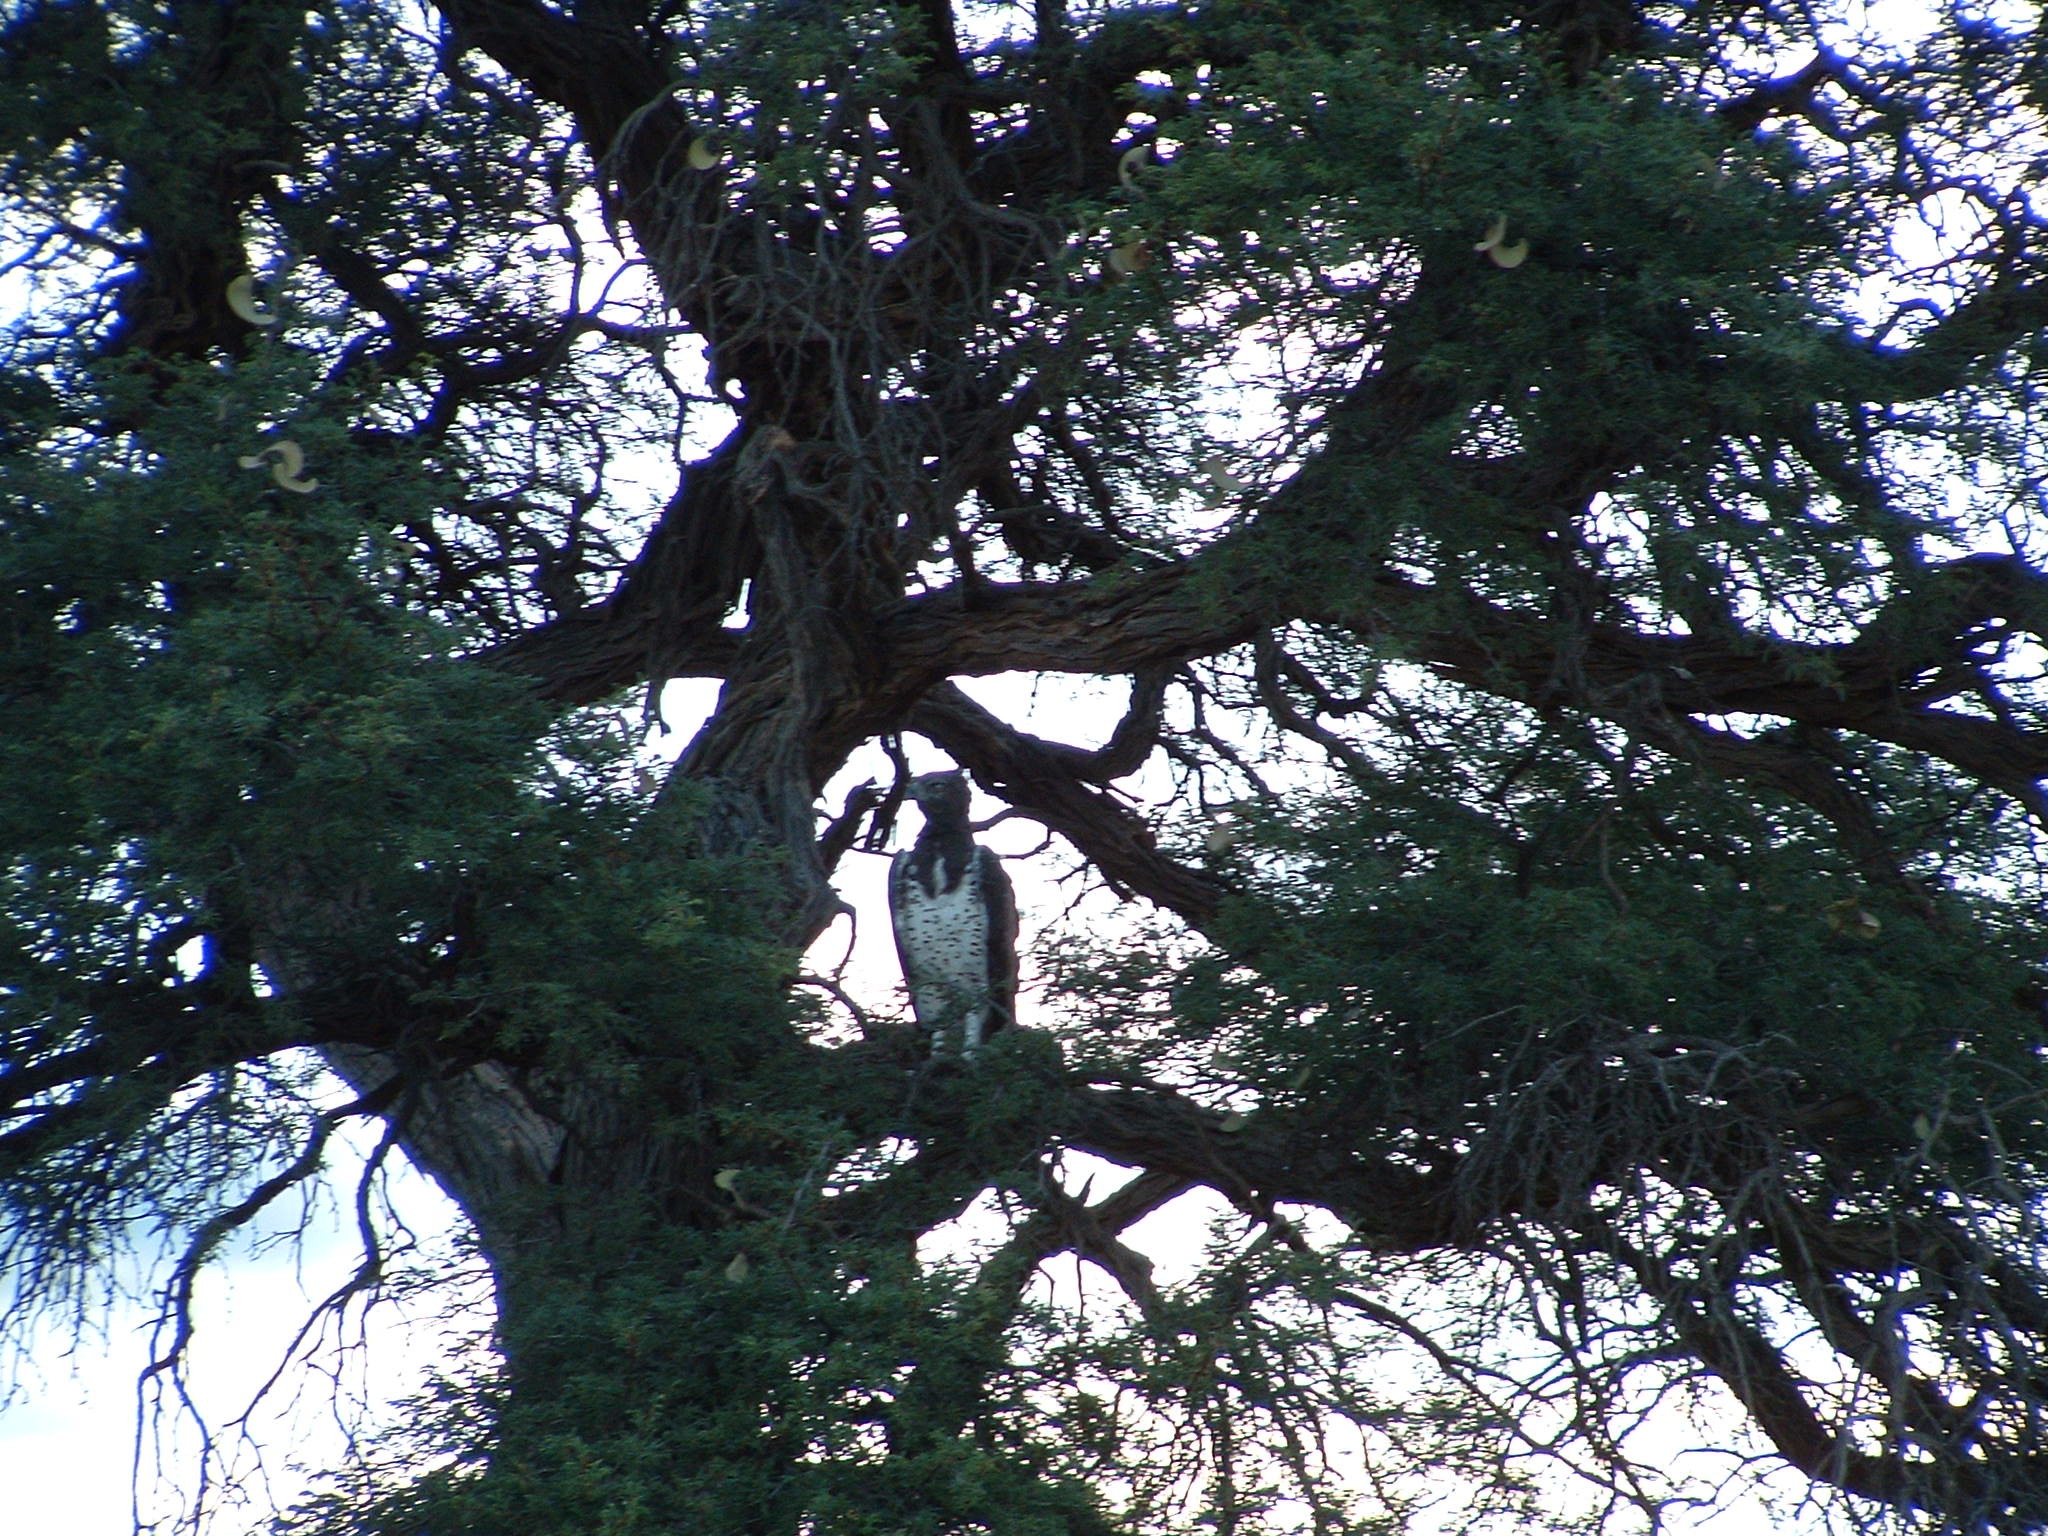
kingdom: Animalia
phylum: Chordata
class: Aves
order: Accipitriformes
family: Accipitridae
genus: Polemaetus
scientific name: Polemaetus bellicosus
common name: Martial eagle
